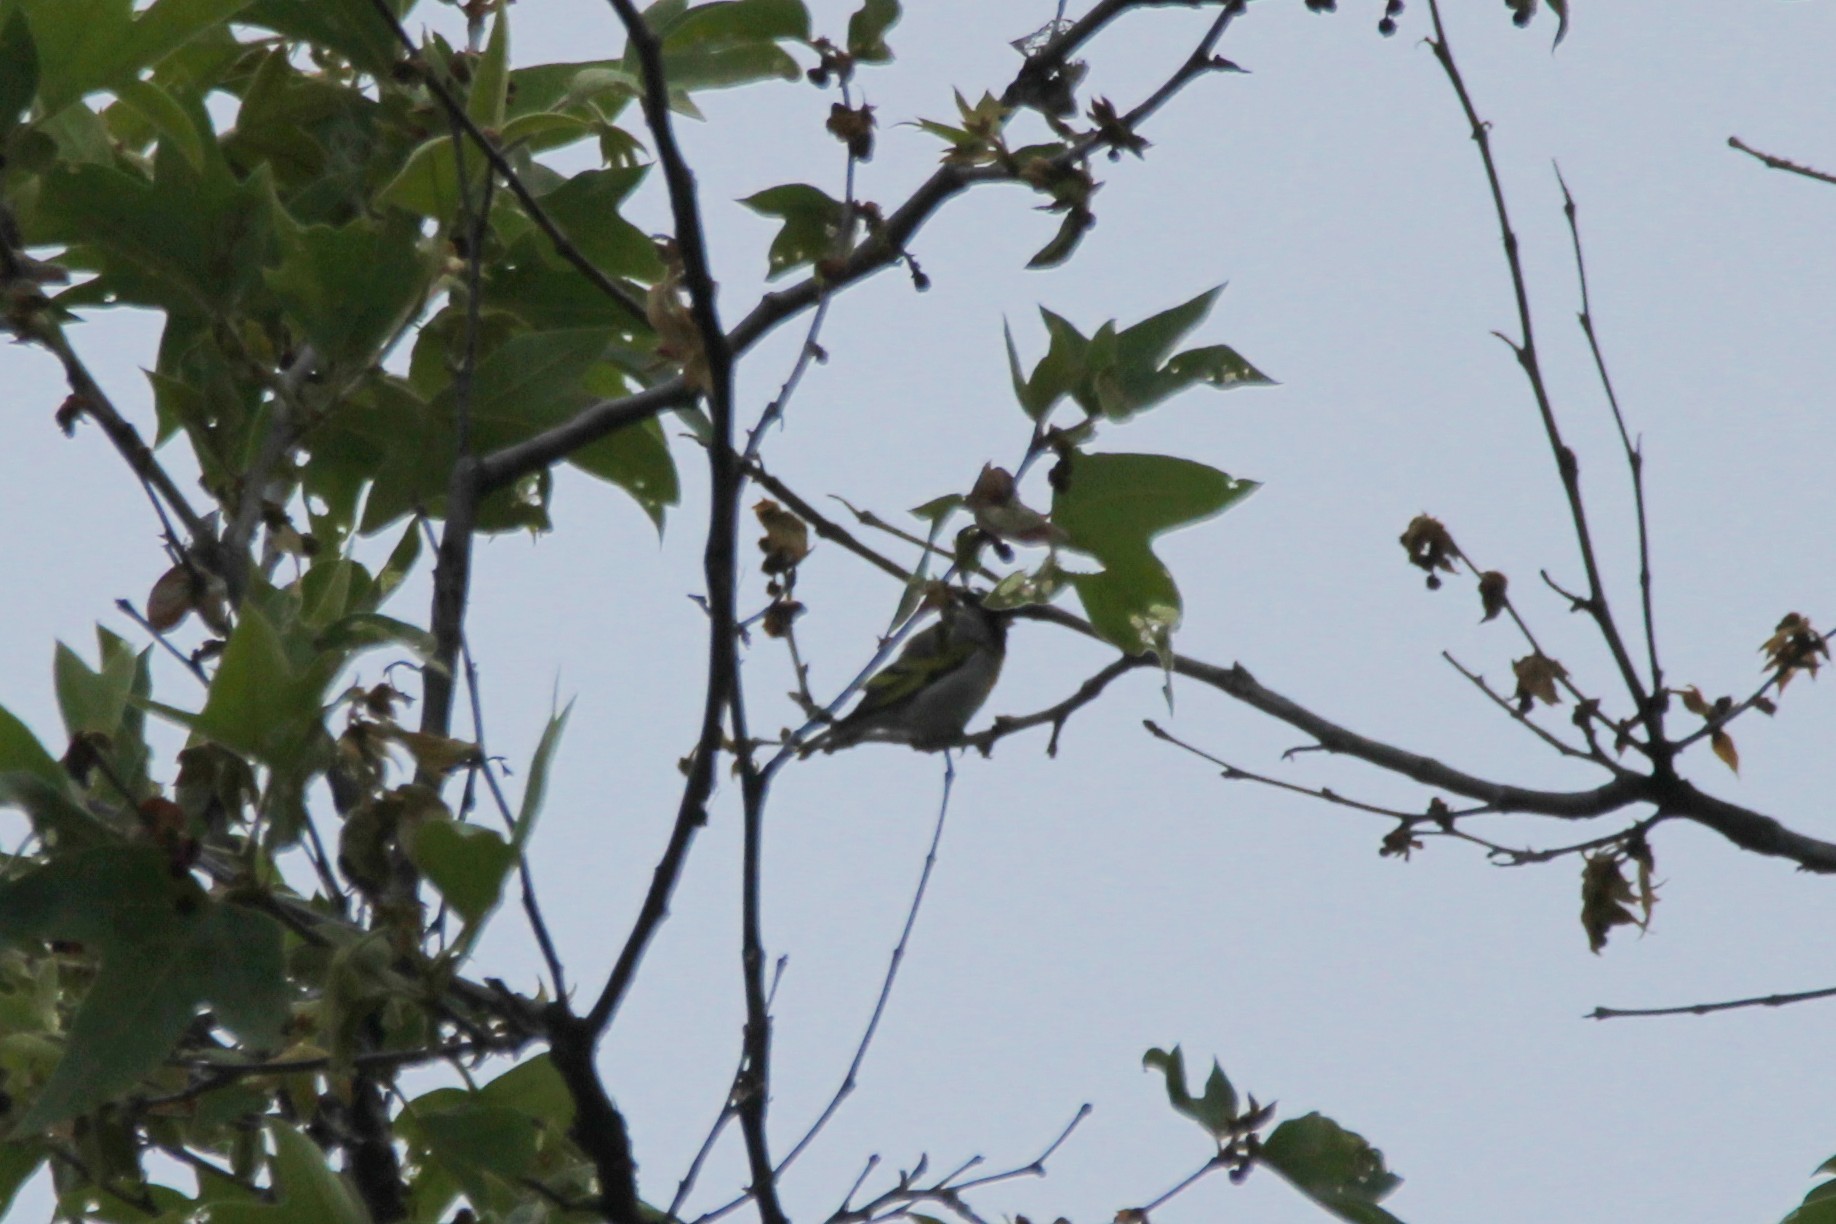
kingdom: Animalia
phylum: Chordata
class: Aves
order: Passeriformes
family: Fringillidae
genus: Spinus
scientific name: Spinus lawrencei
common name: Lawrence's goldfinch
